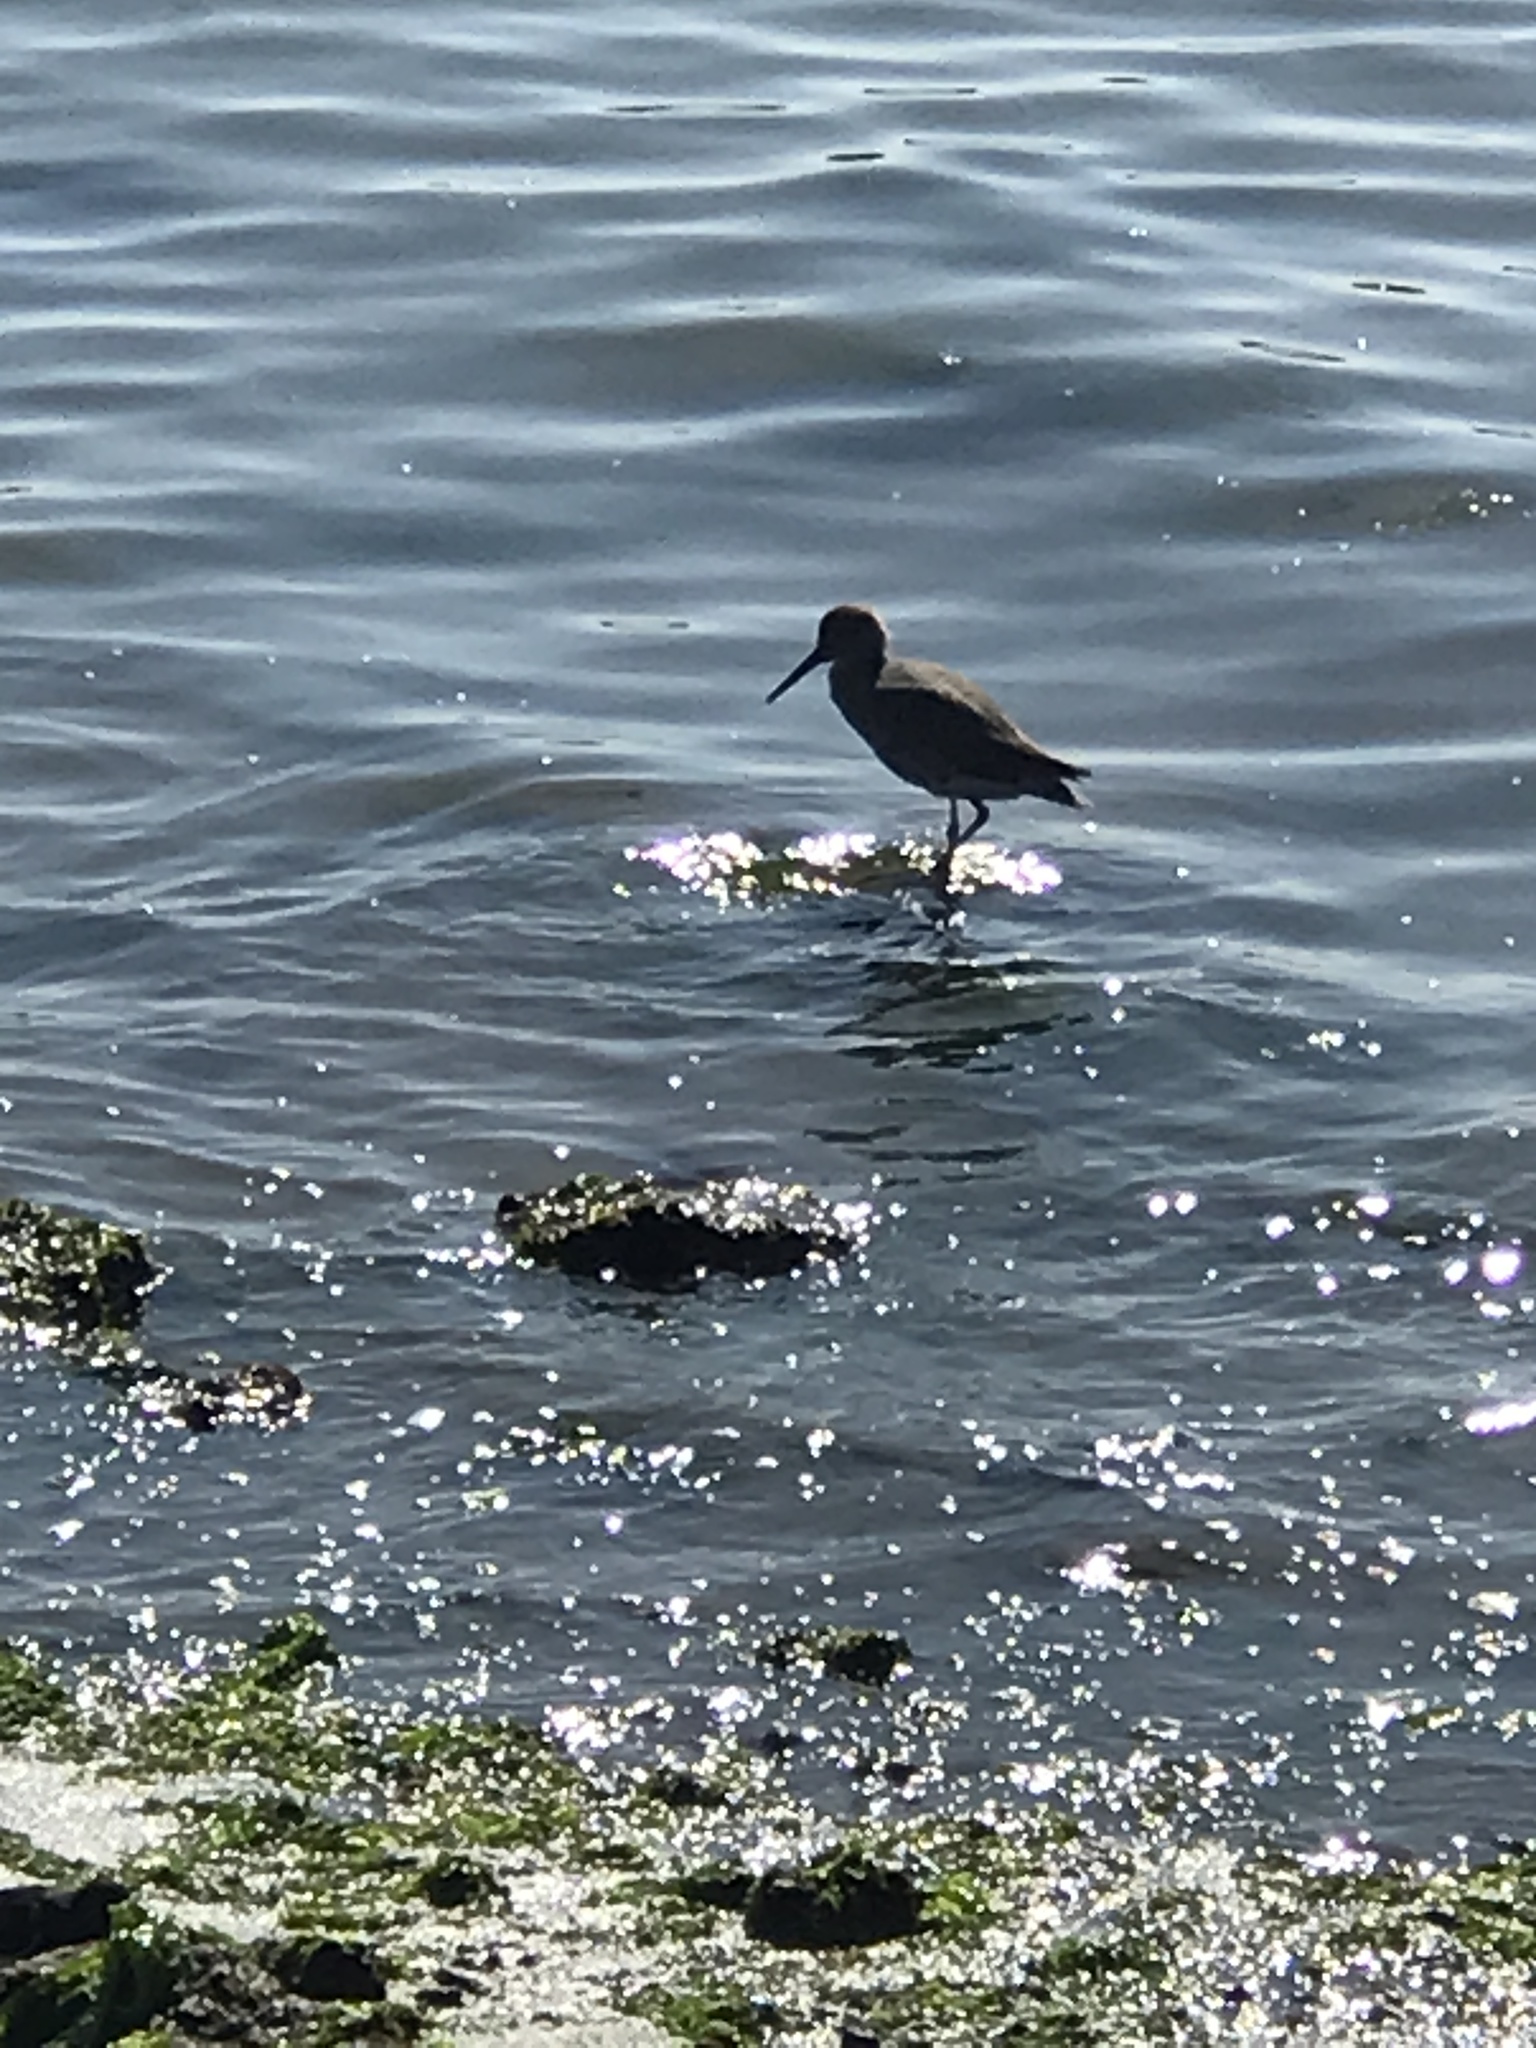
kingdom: Animalia
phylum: Chordata
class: Aves
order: Charadriiformes
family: Scolopacidae
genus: Tringa
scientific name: Tringa semipalmata
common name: Willet
